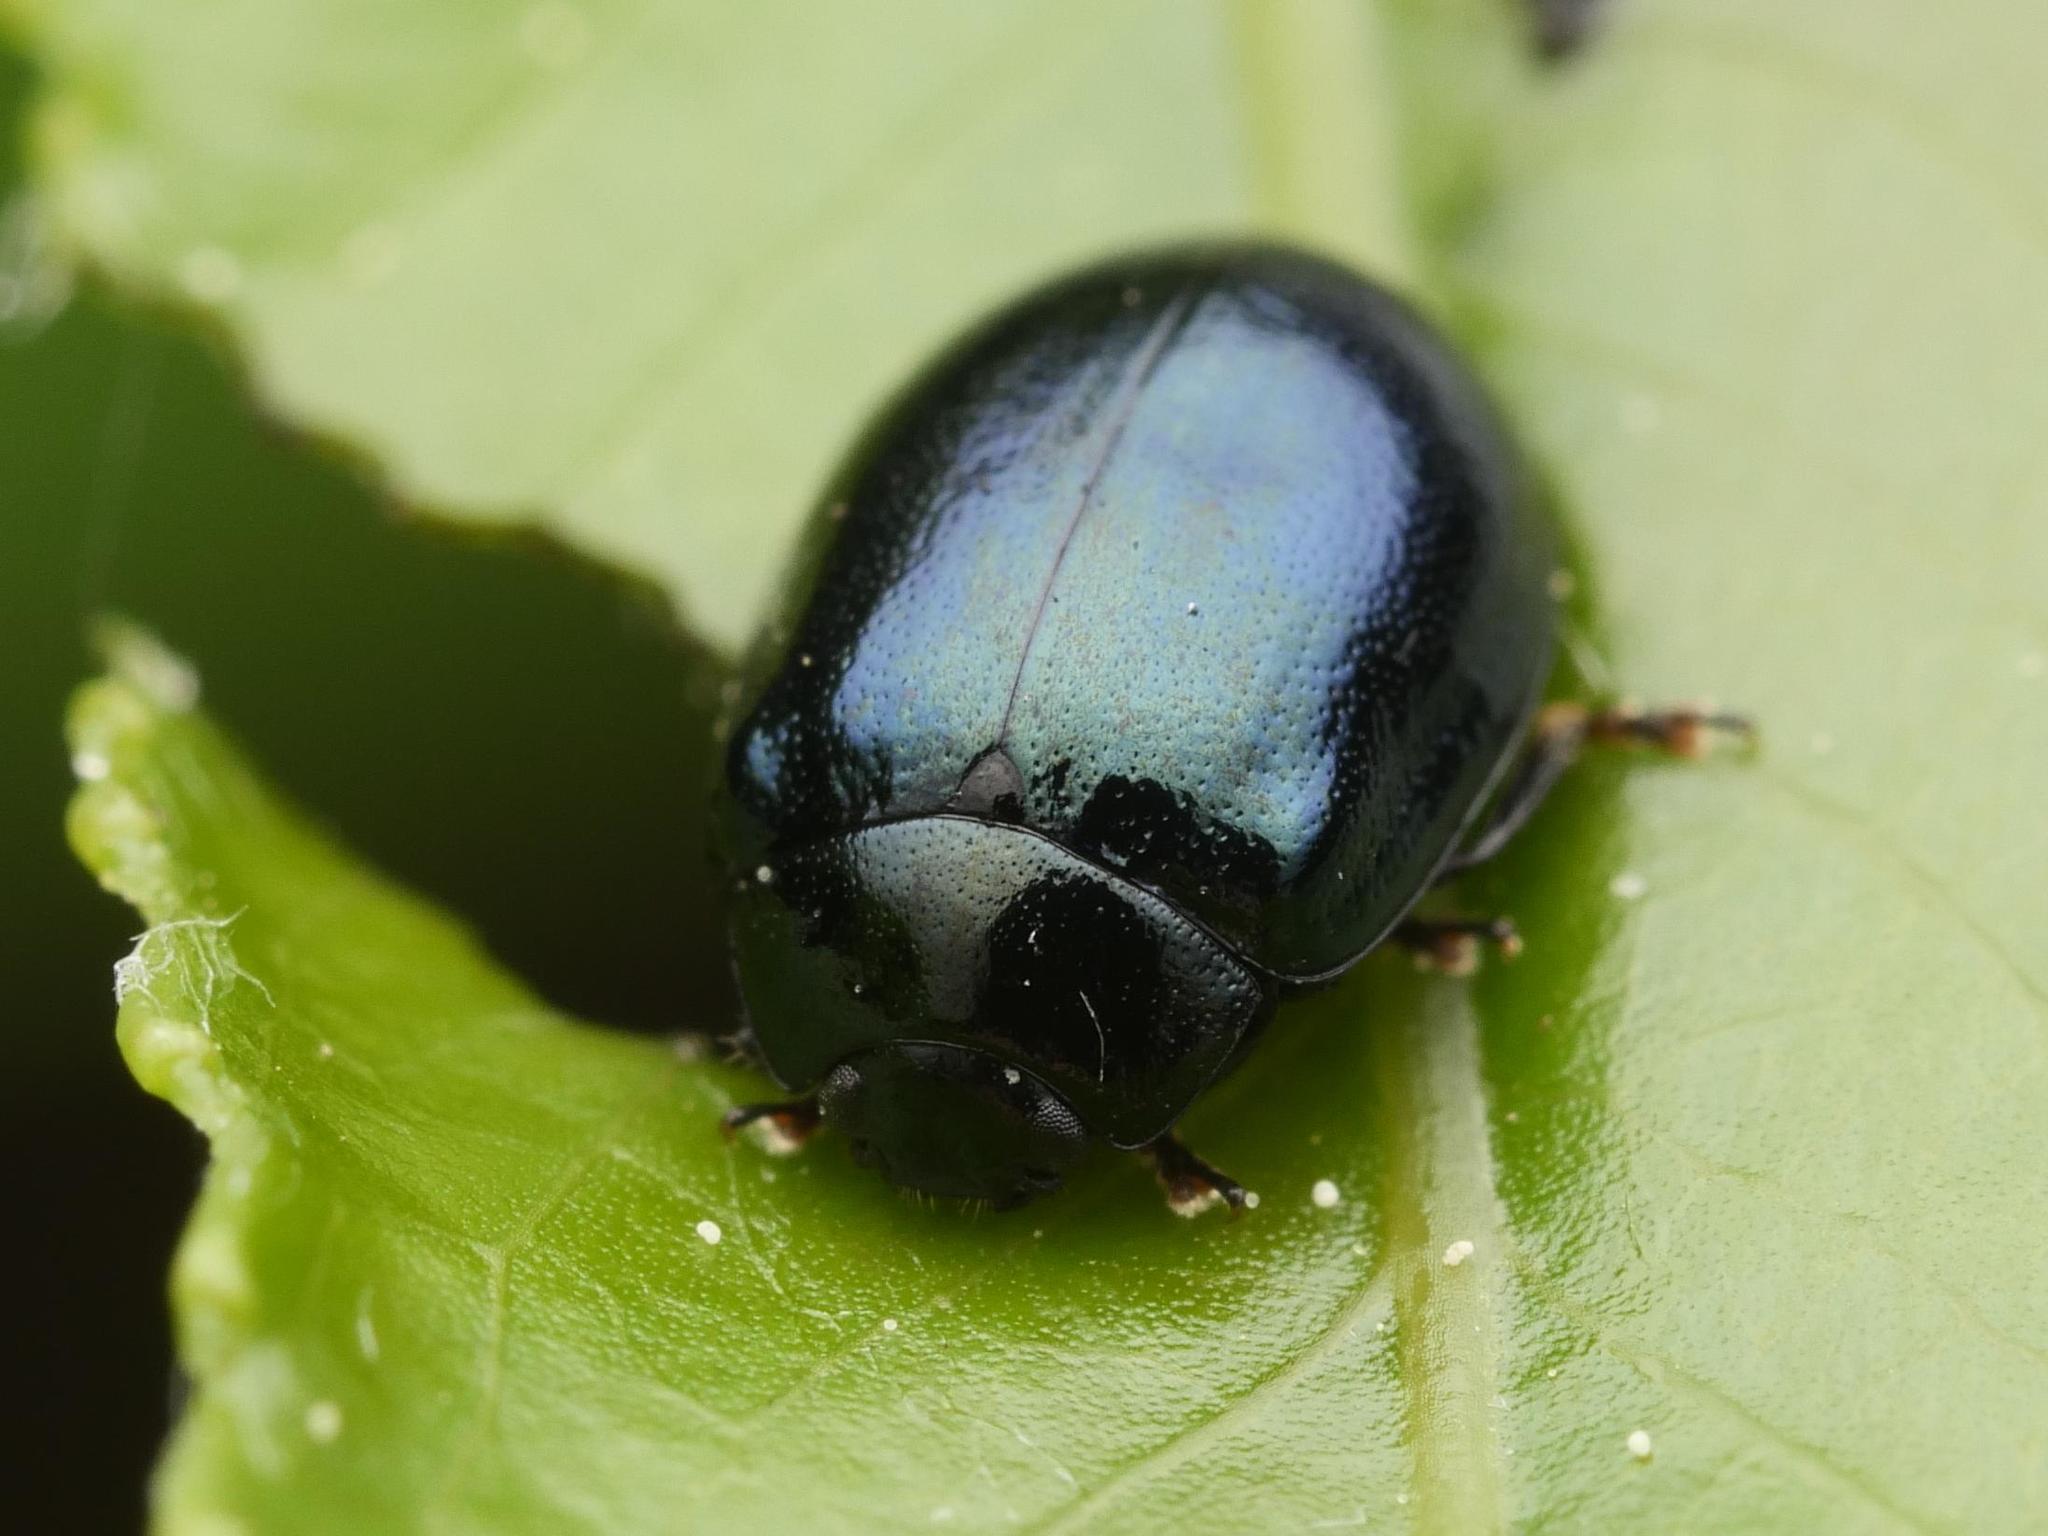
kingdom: Animalia
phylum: Arthropoda
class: Insecta
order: Coleoptera
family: Chrysomelidae
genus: Plagiodera
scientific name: Plagiodera versicolora
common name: Imported willow leaf beetle
